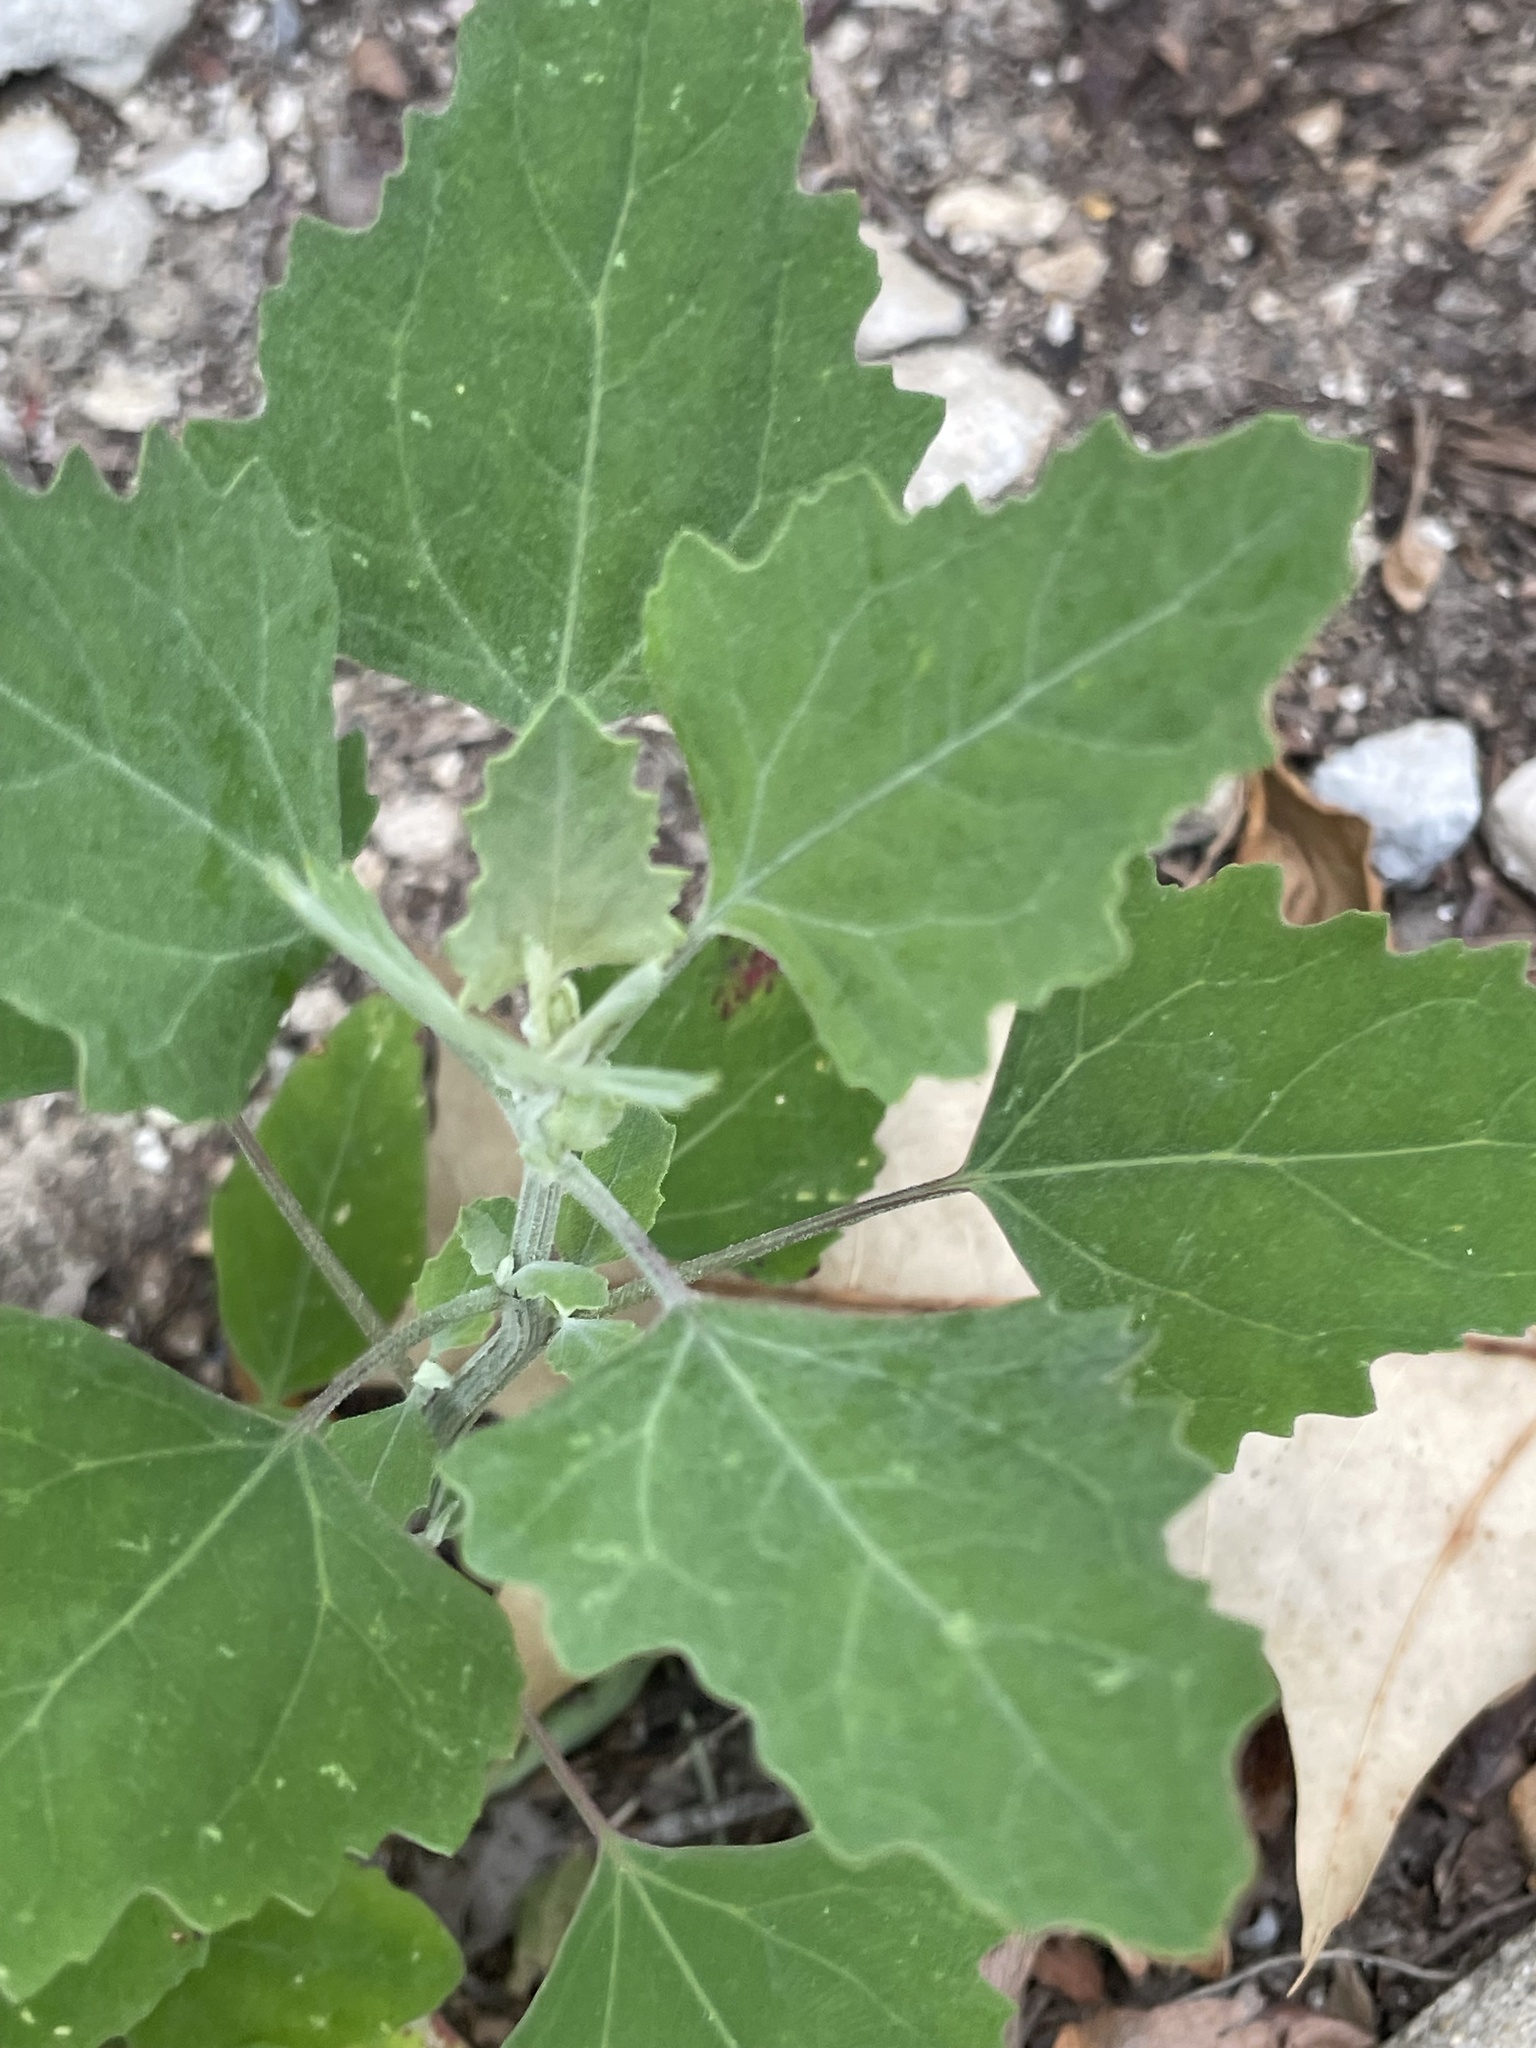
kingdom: Plantae
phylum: Tracheophyta
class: Magnoliopsida
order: Caryophyllales
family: Amaranthaceae
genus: Chenopodium
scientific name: Chenopodium album
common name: Fat-hen
